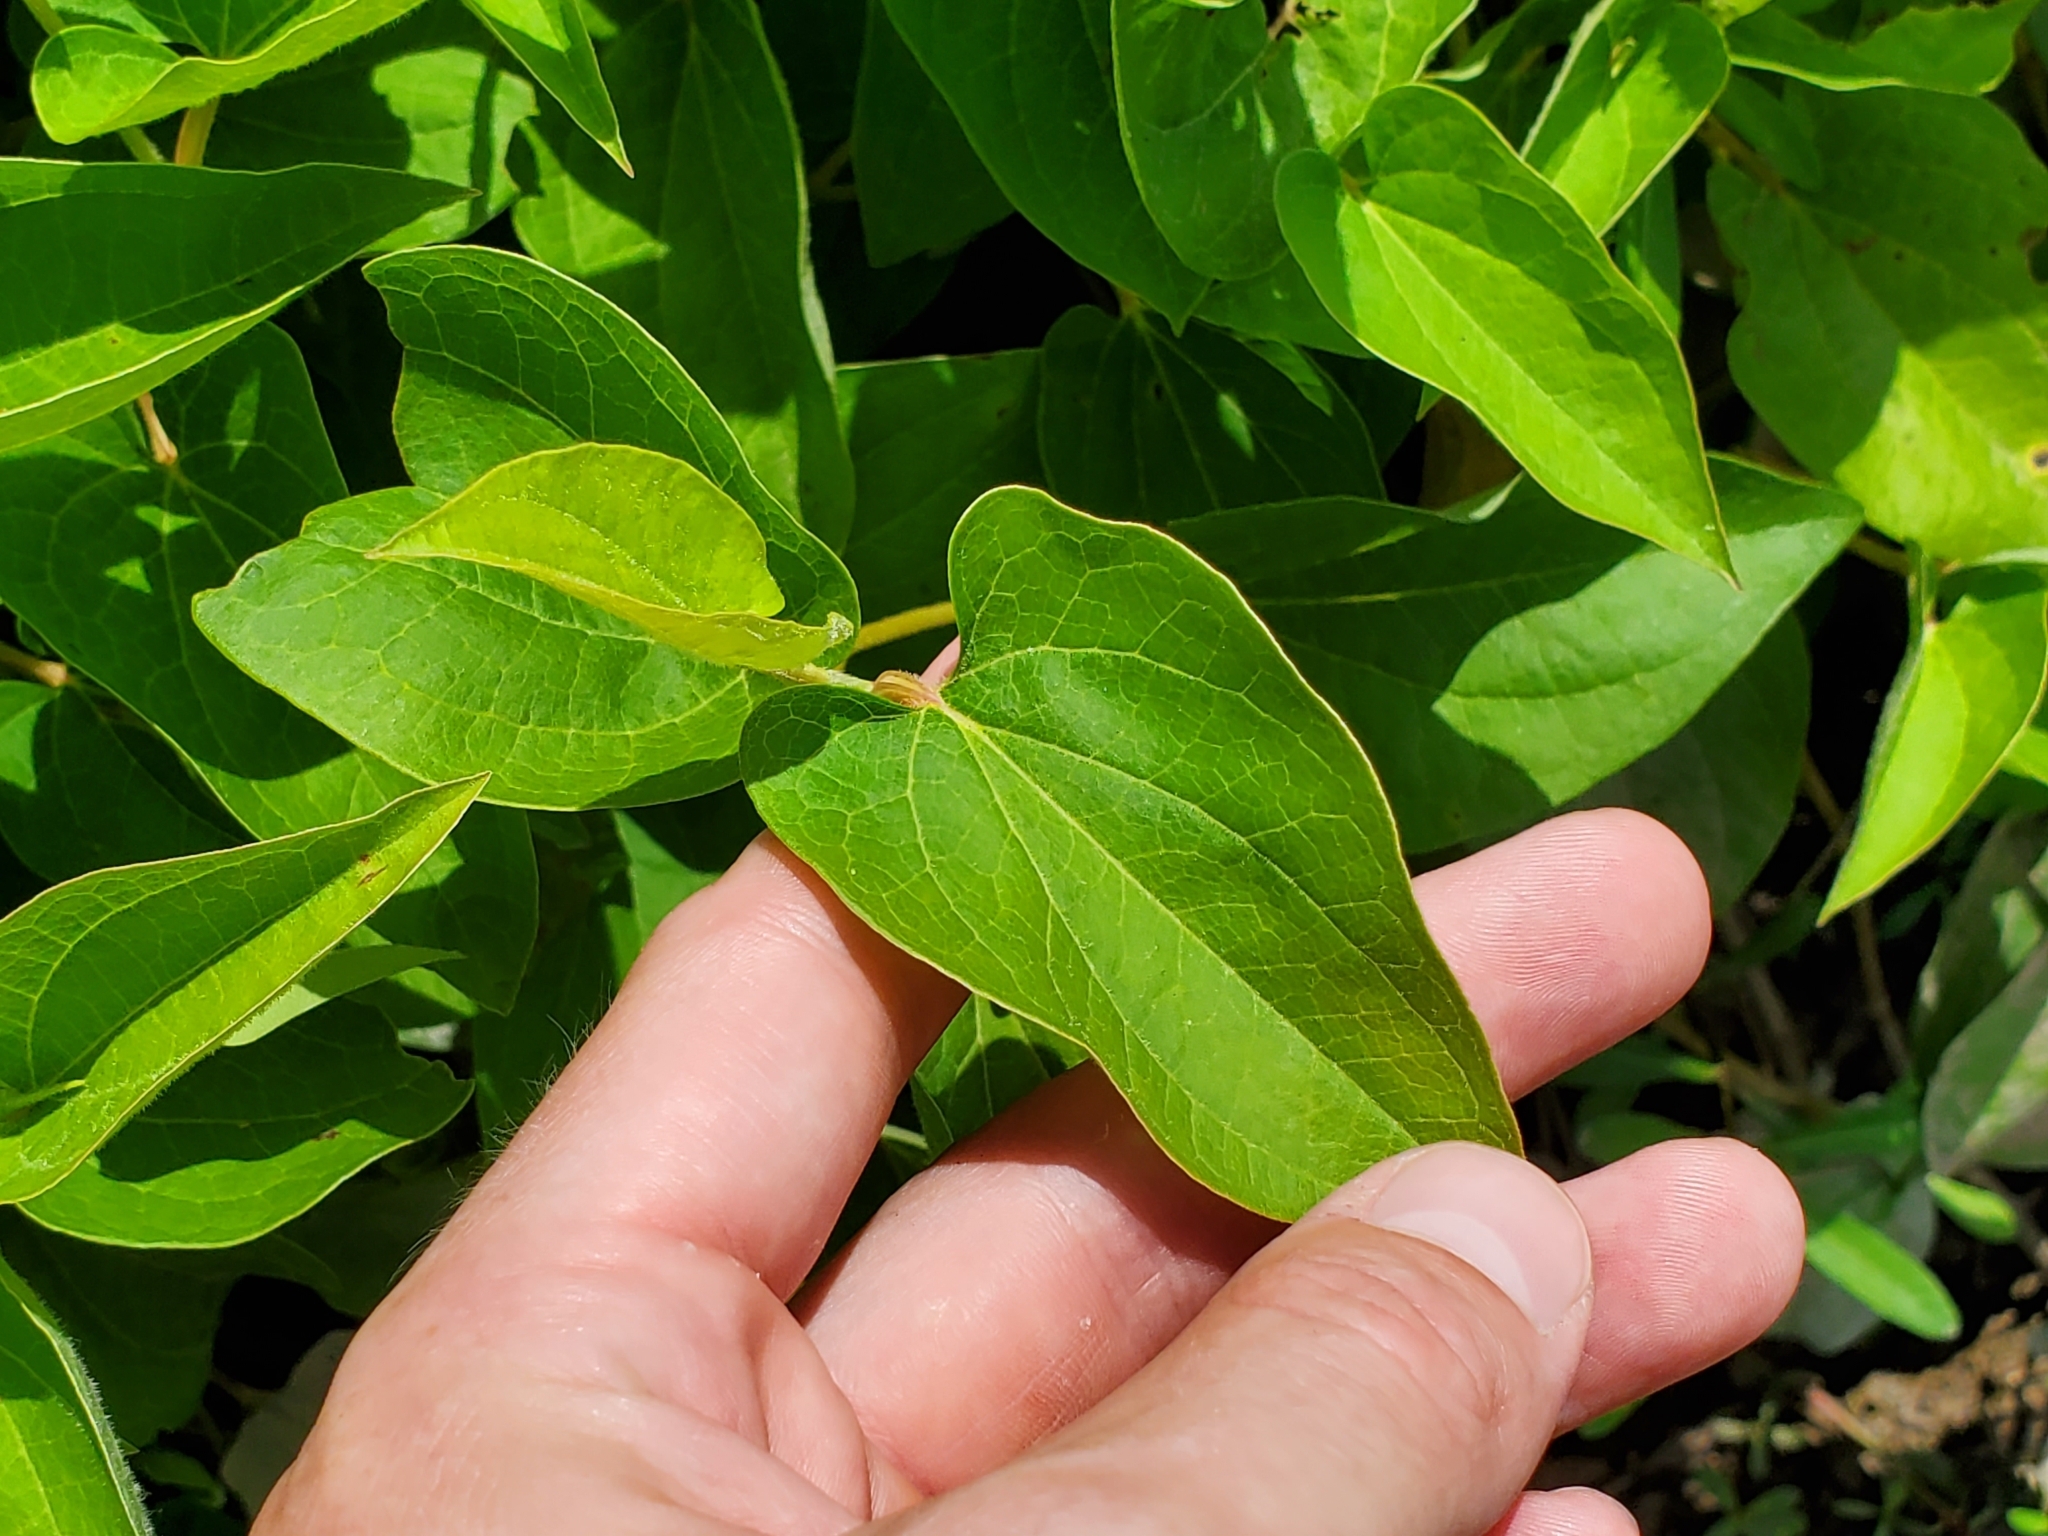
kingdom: Plantae
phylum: Tracheophyta
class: Magnoliopsida
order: Piperales
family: Saururaceae
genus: Saururus
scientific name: Saururus cernuus
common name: Lizard's-tail
